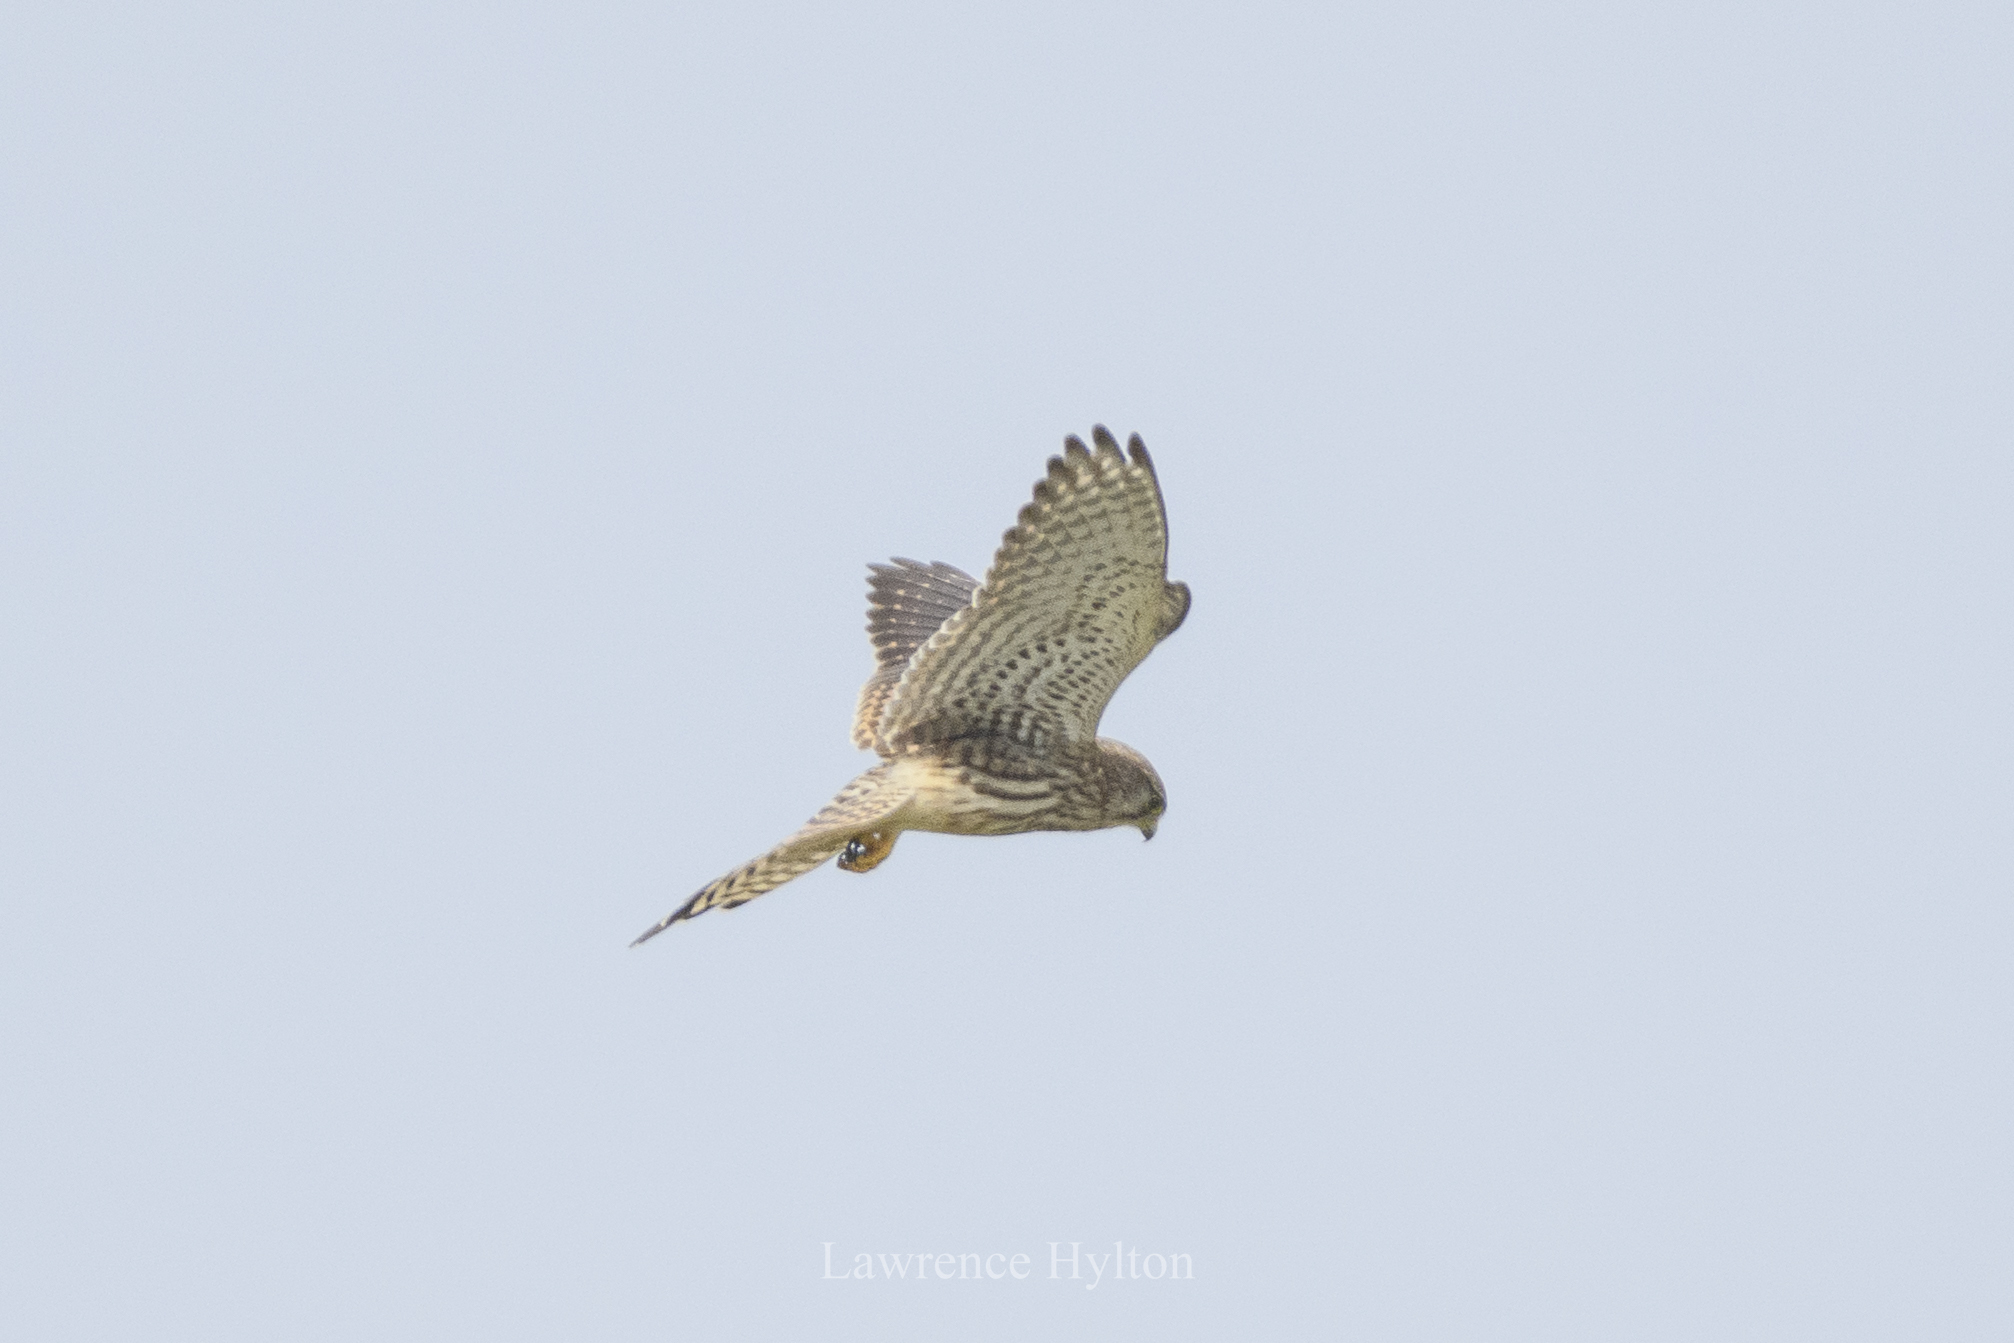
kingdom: Animalia
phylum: Chordata
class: Aves
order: Falconiformes
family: Falconidae
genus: Falco
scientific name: Falco tinnunculus
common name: Common kestrel
